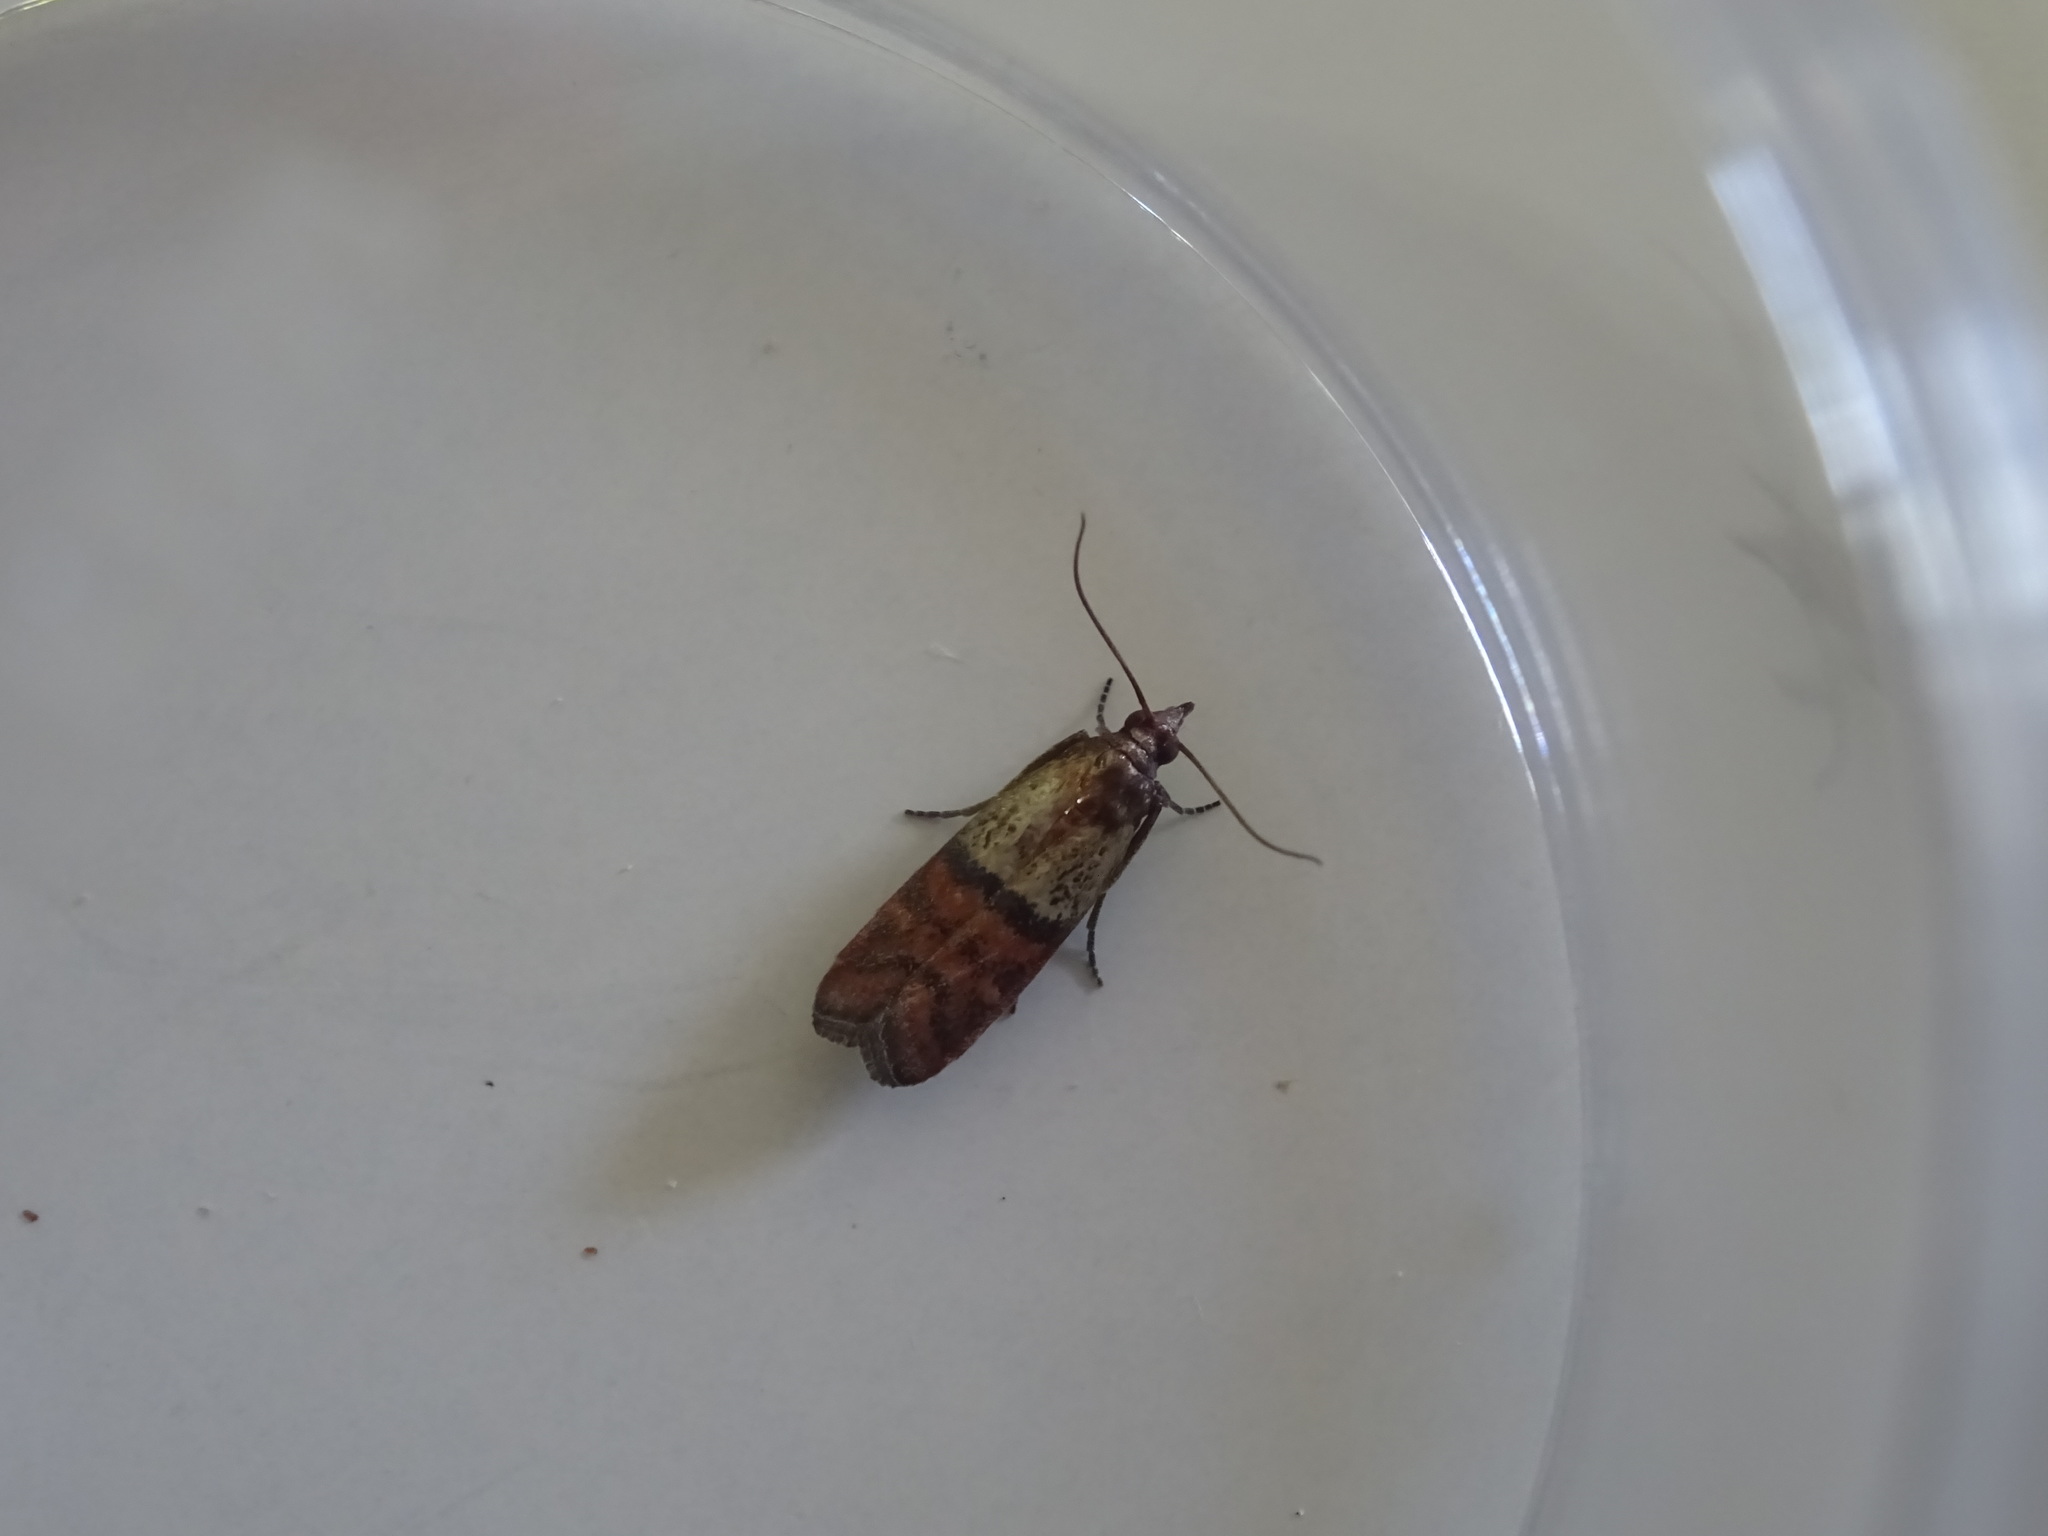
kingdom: Animalia
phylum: Arthropoda
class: Insecta
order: Lepidoptera
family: Pyralidae
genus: Plodia
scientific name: Plodia interpunctella
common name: Indian meal moth
